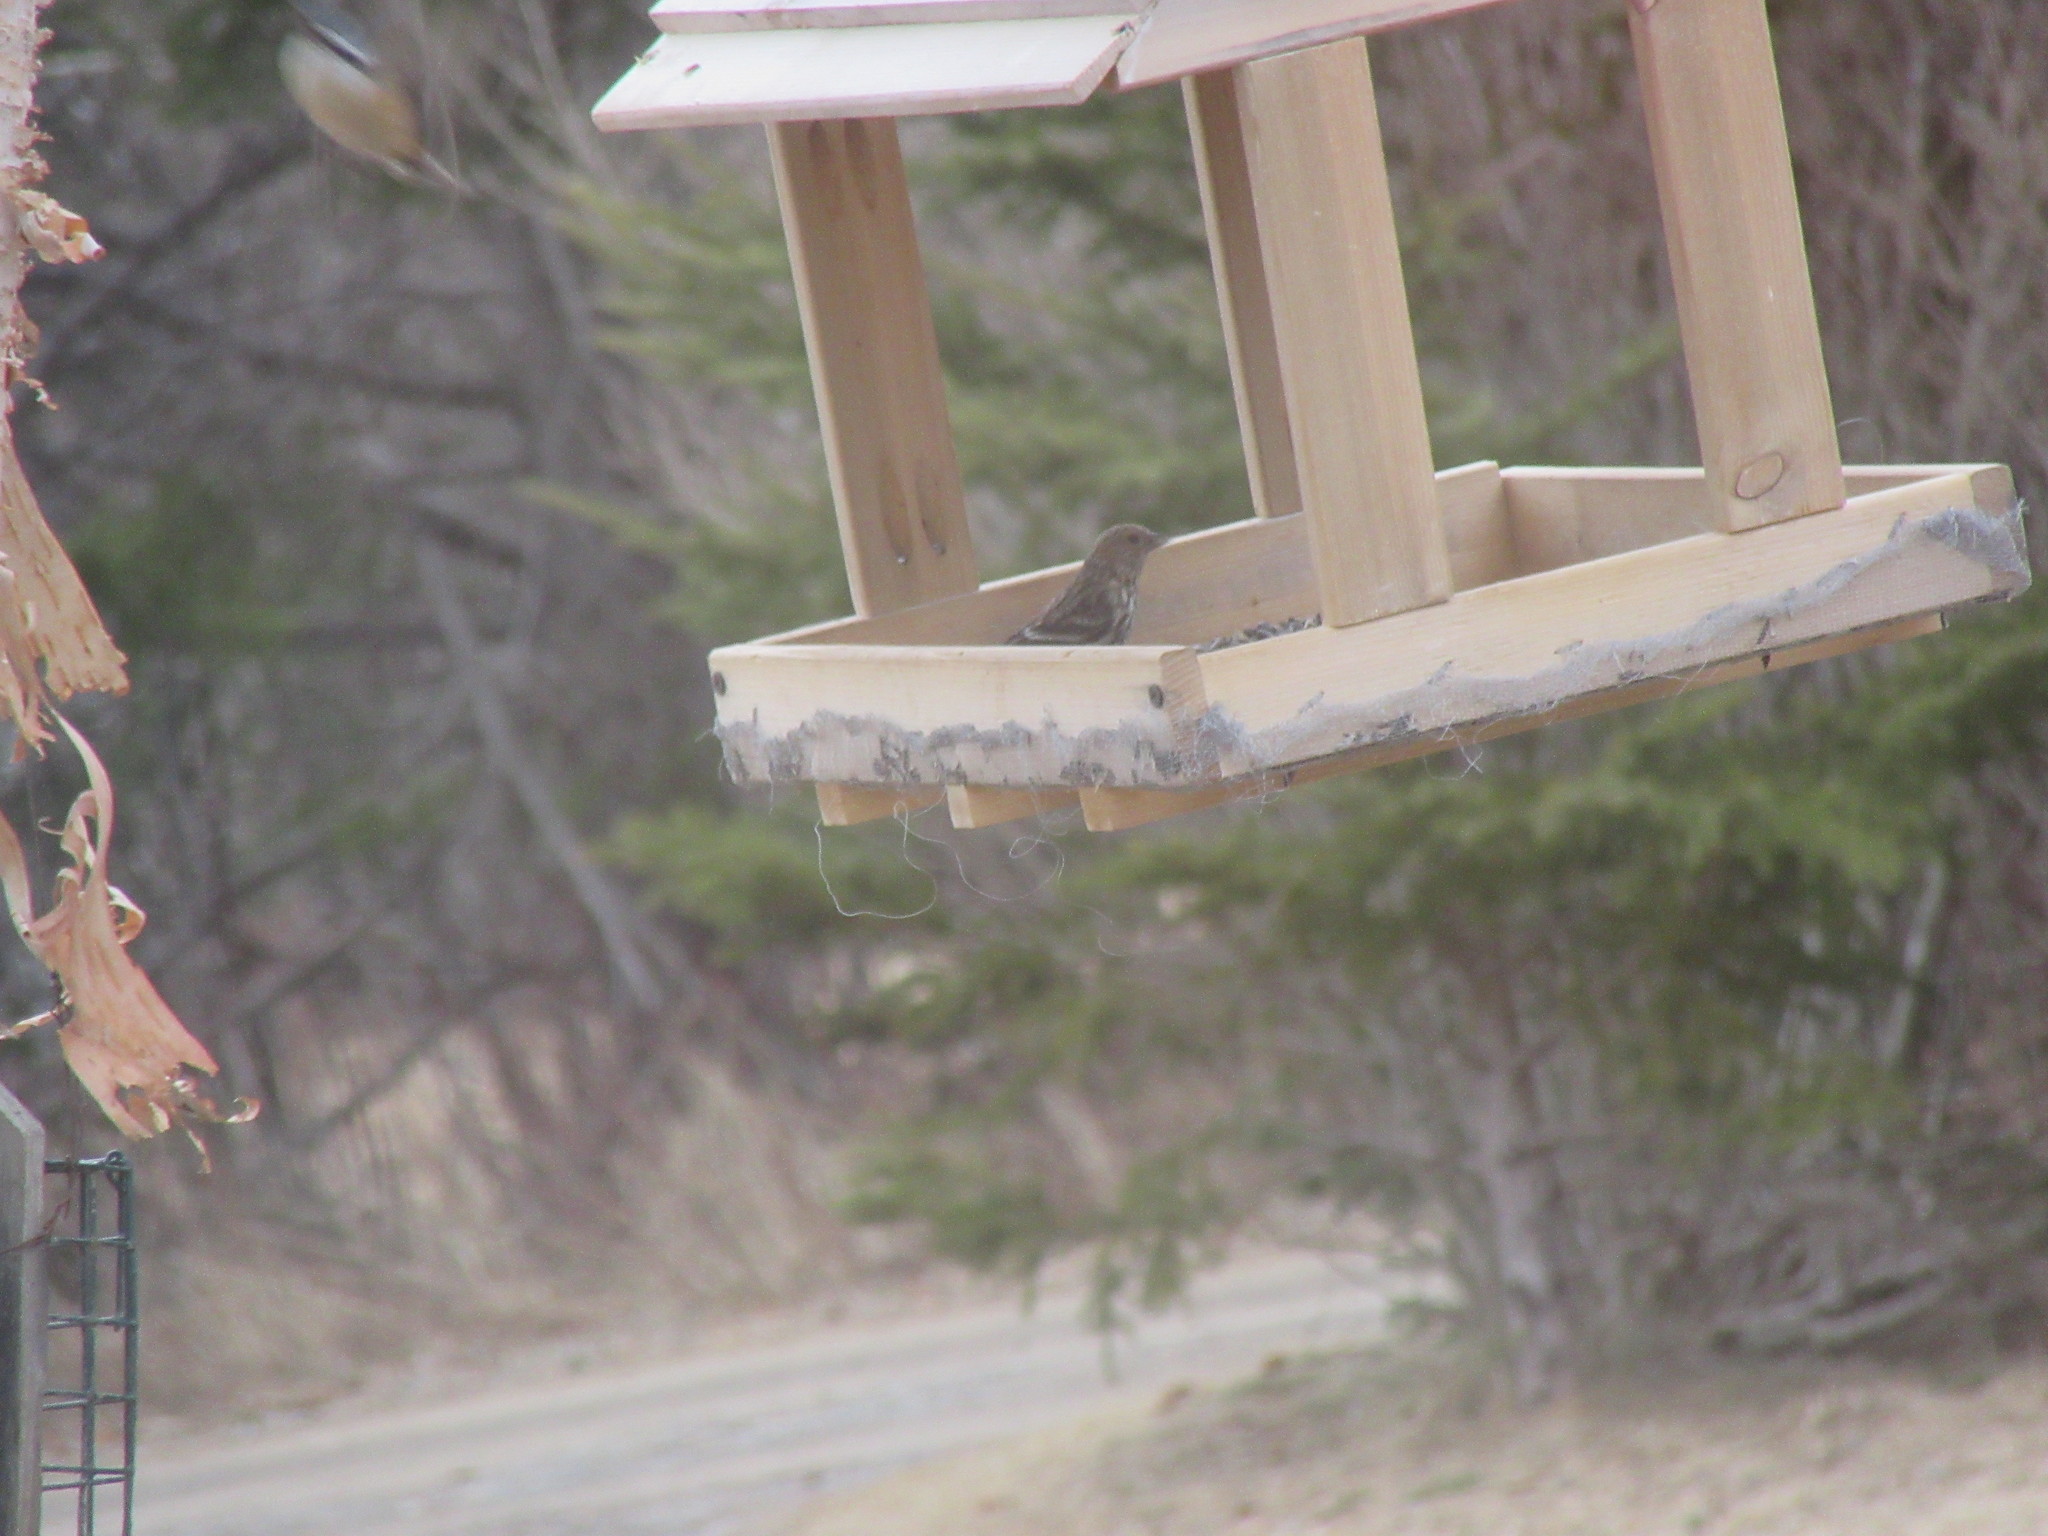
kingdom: Animalia
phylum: Chordata
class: Aves
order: Passeriformes
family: Fringillidae
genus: Spinus
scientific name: Spinus pinus
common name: Pine siskin
